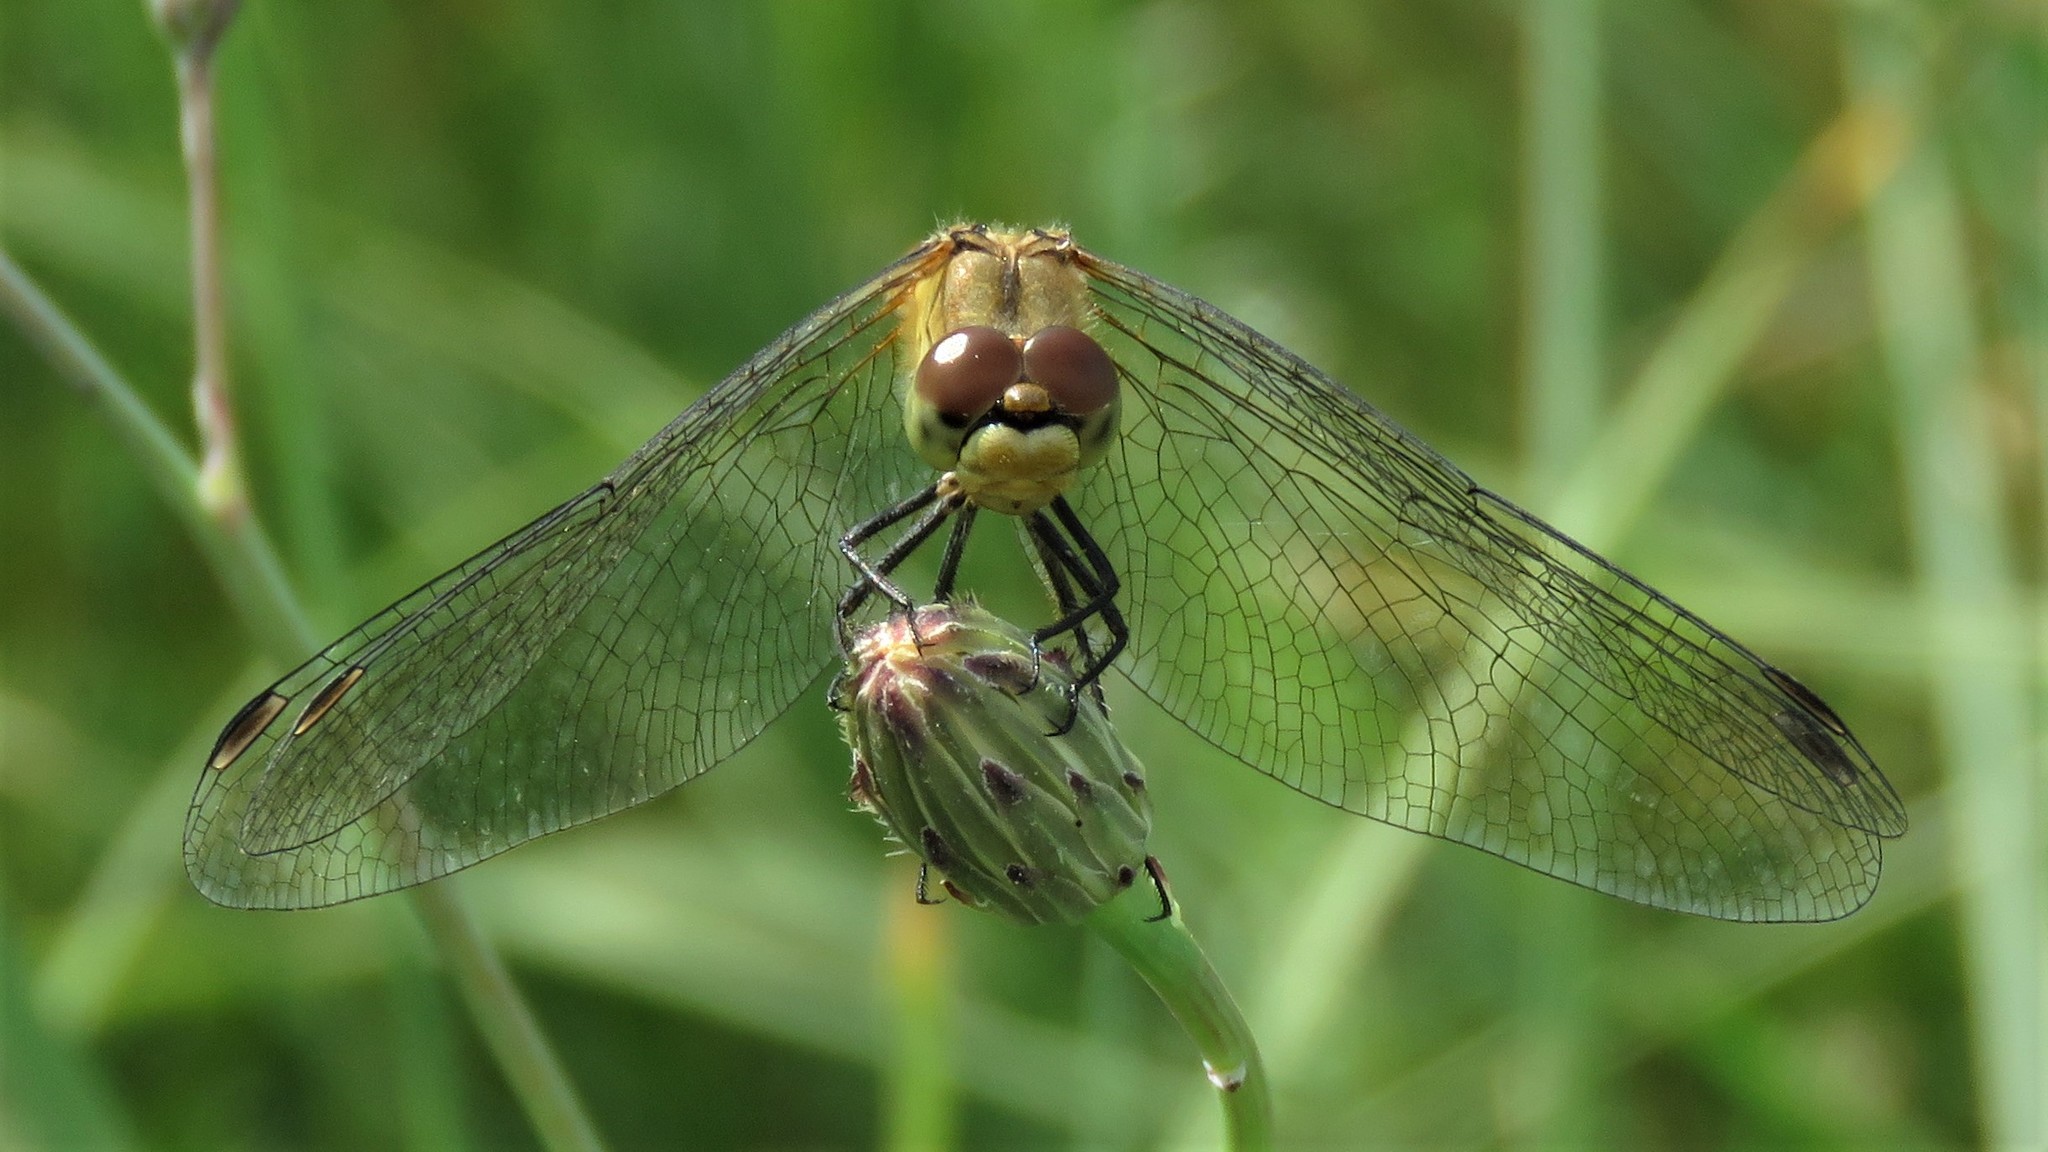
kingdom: Animalia
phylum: Arthropoda
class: Insecta
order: Odonata
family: Libellulidae
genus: Sympetrum
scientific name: Sympetrum sanguineum
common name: Ruddy darter
